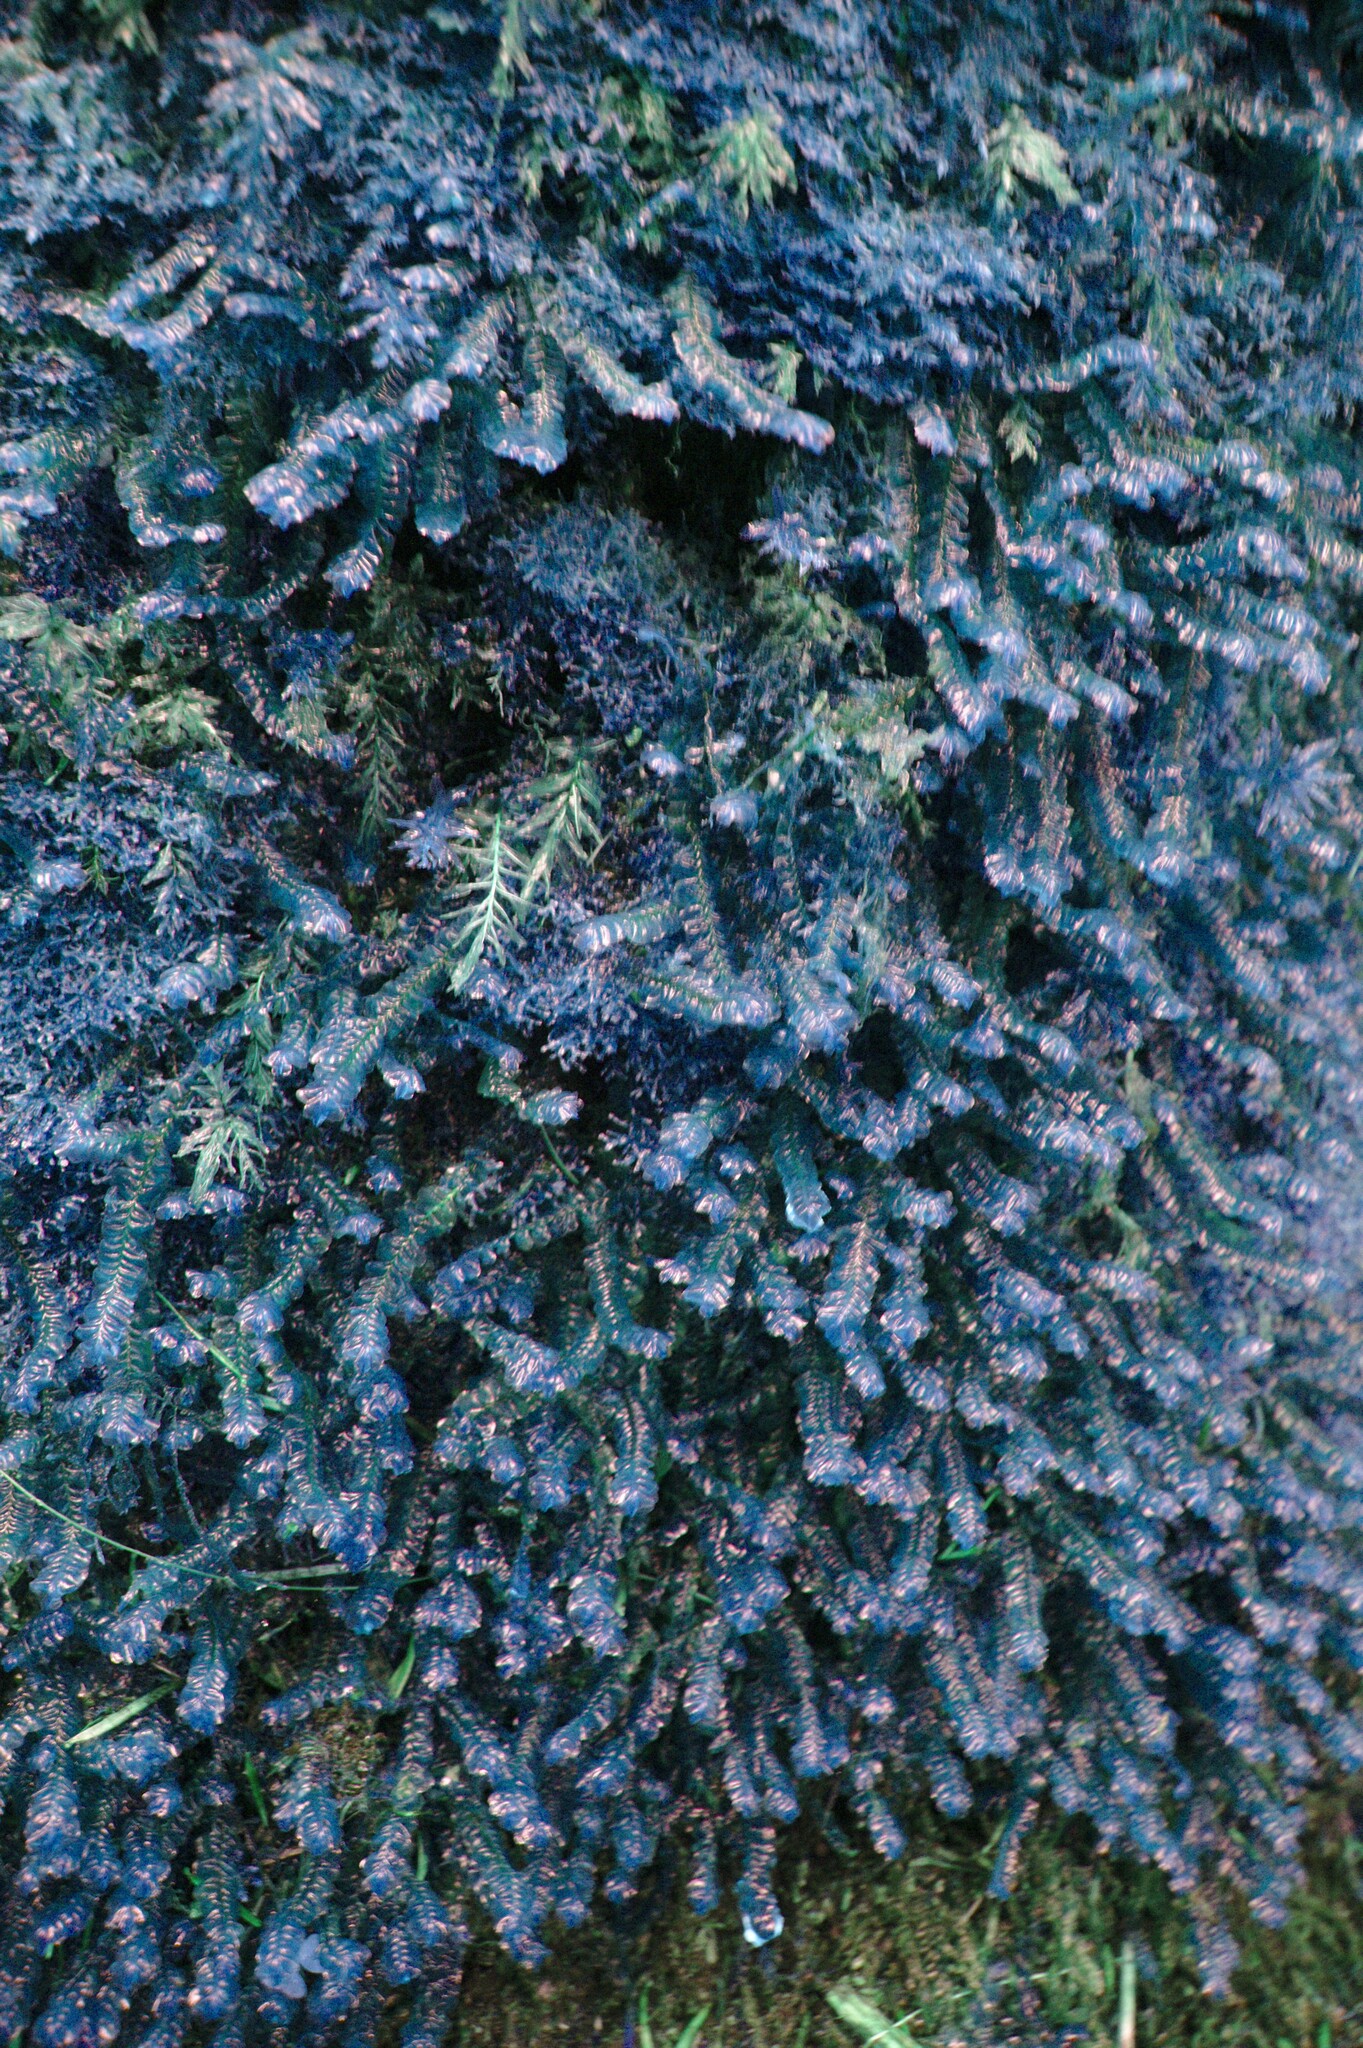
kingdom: Plantae
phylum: Marchantiophyta
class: Jungermanniopsida
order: Jungermanniales
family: Plagiochilaceae
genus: Plagiochila
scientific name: Plagiochila asplenioides
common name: Greater featherwort
